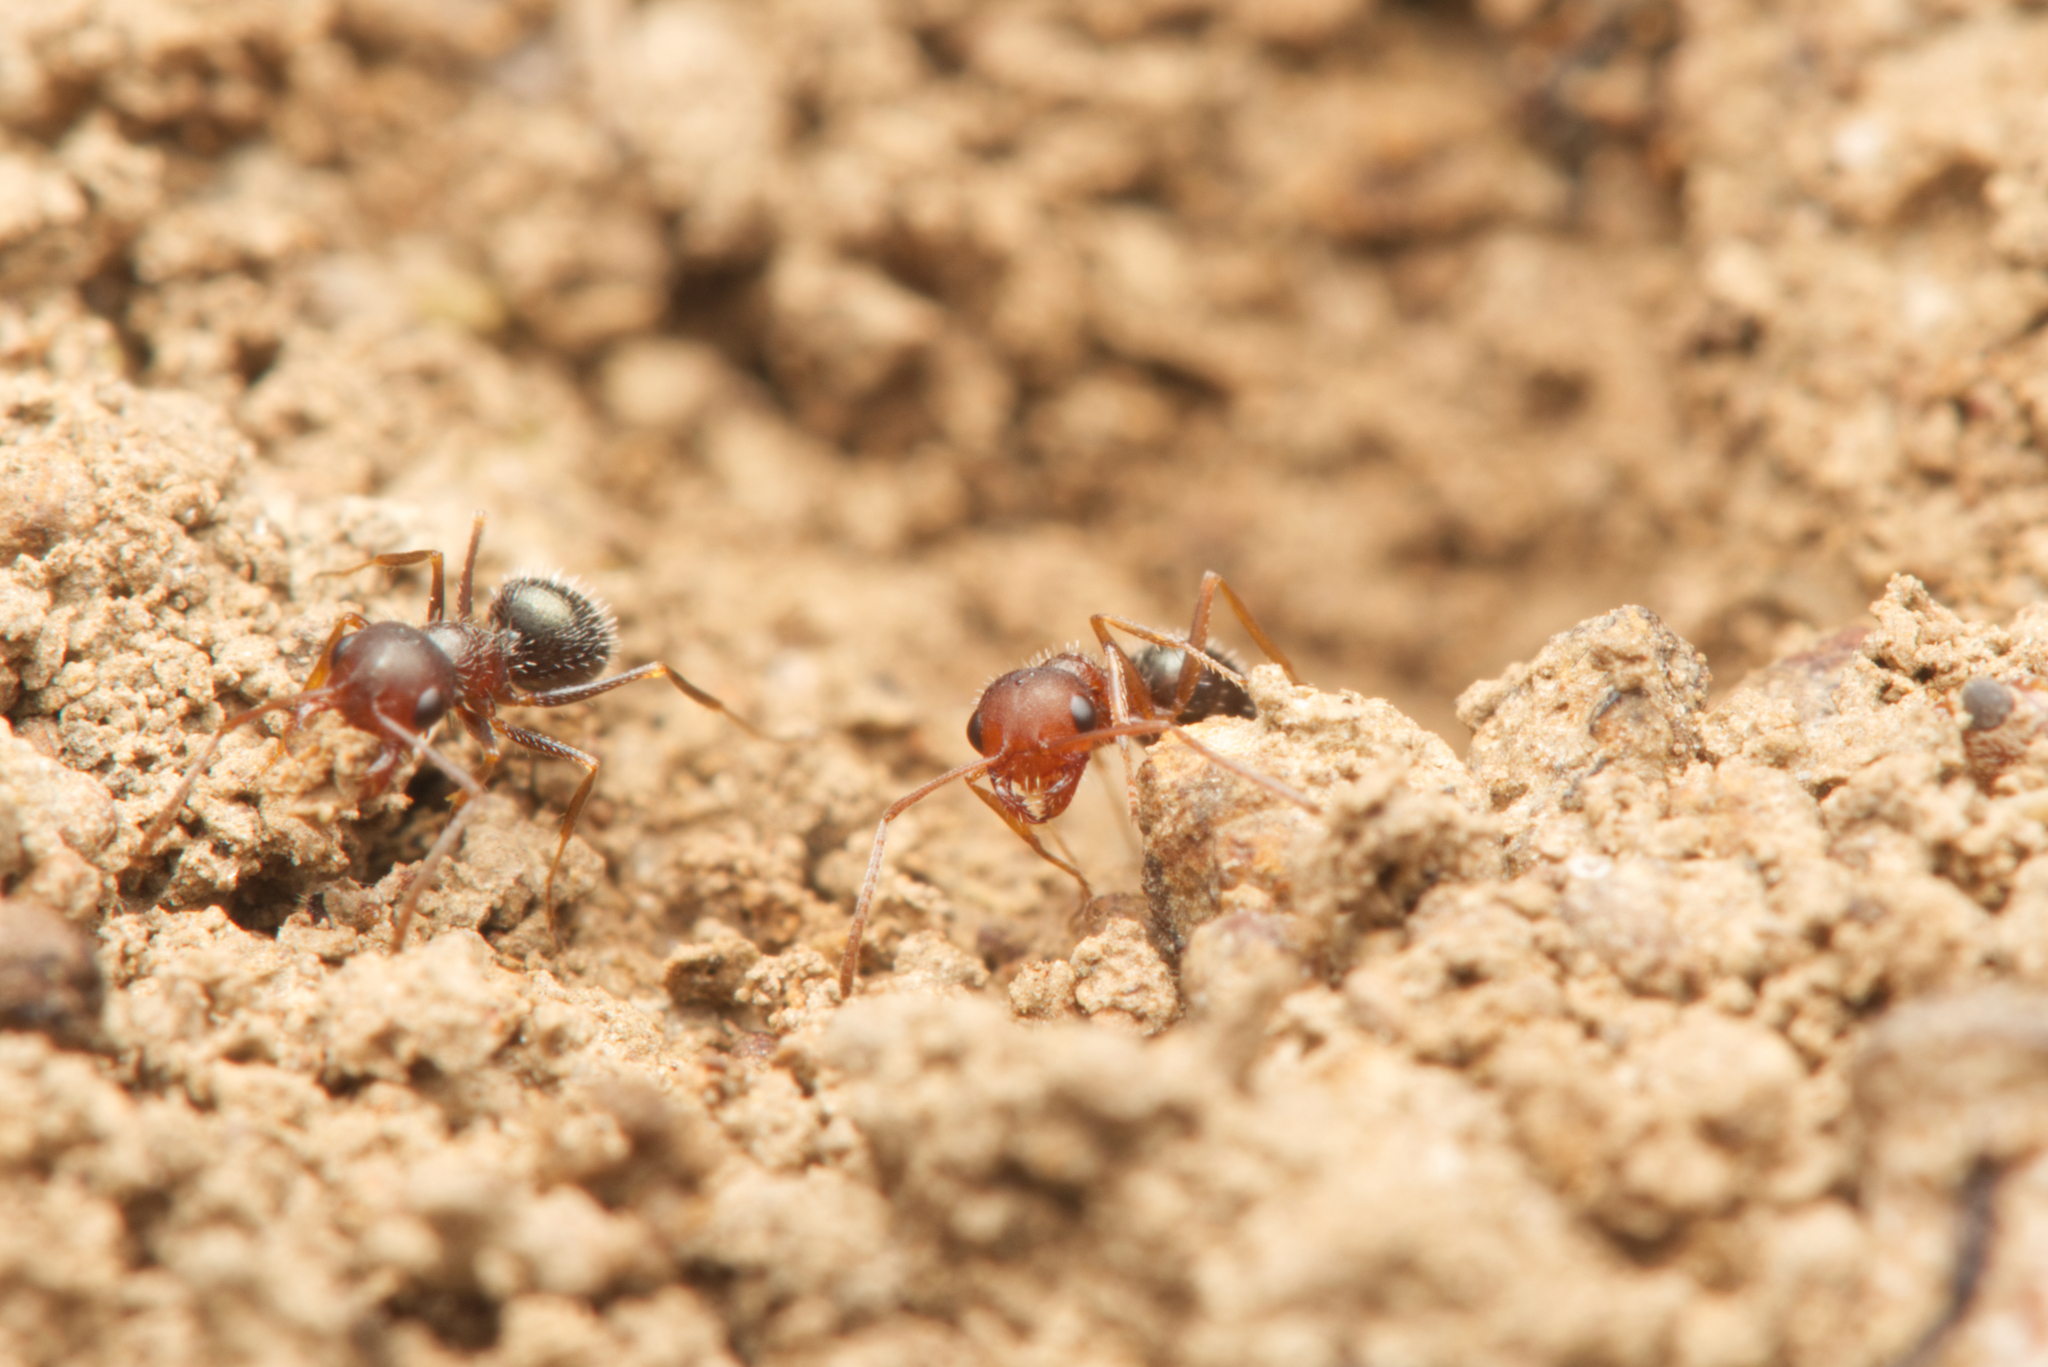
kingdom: Animalia
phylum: Arthropoda
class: Insecta
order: Hymenoptera
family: Formicidae
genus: Melophorus
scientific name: Melophorus bruneus
